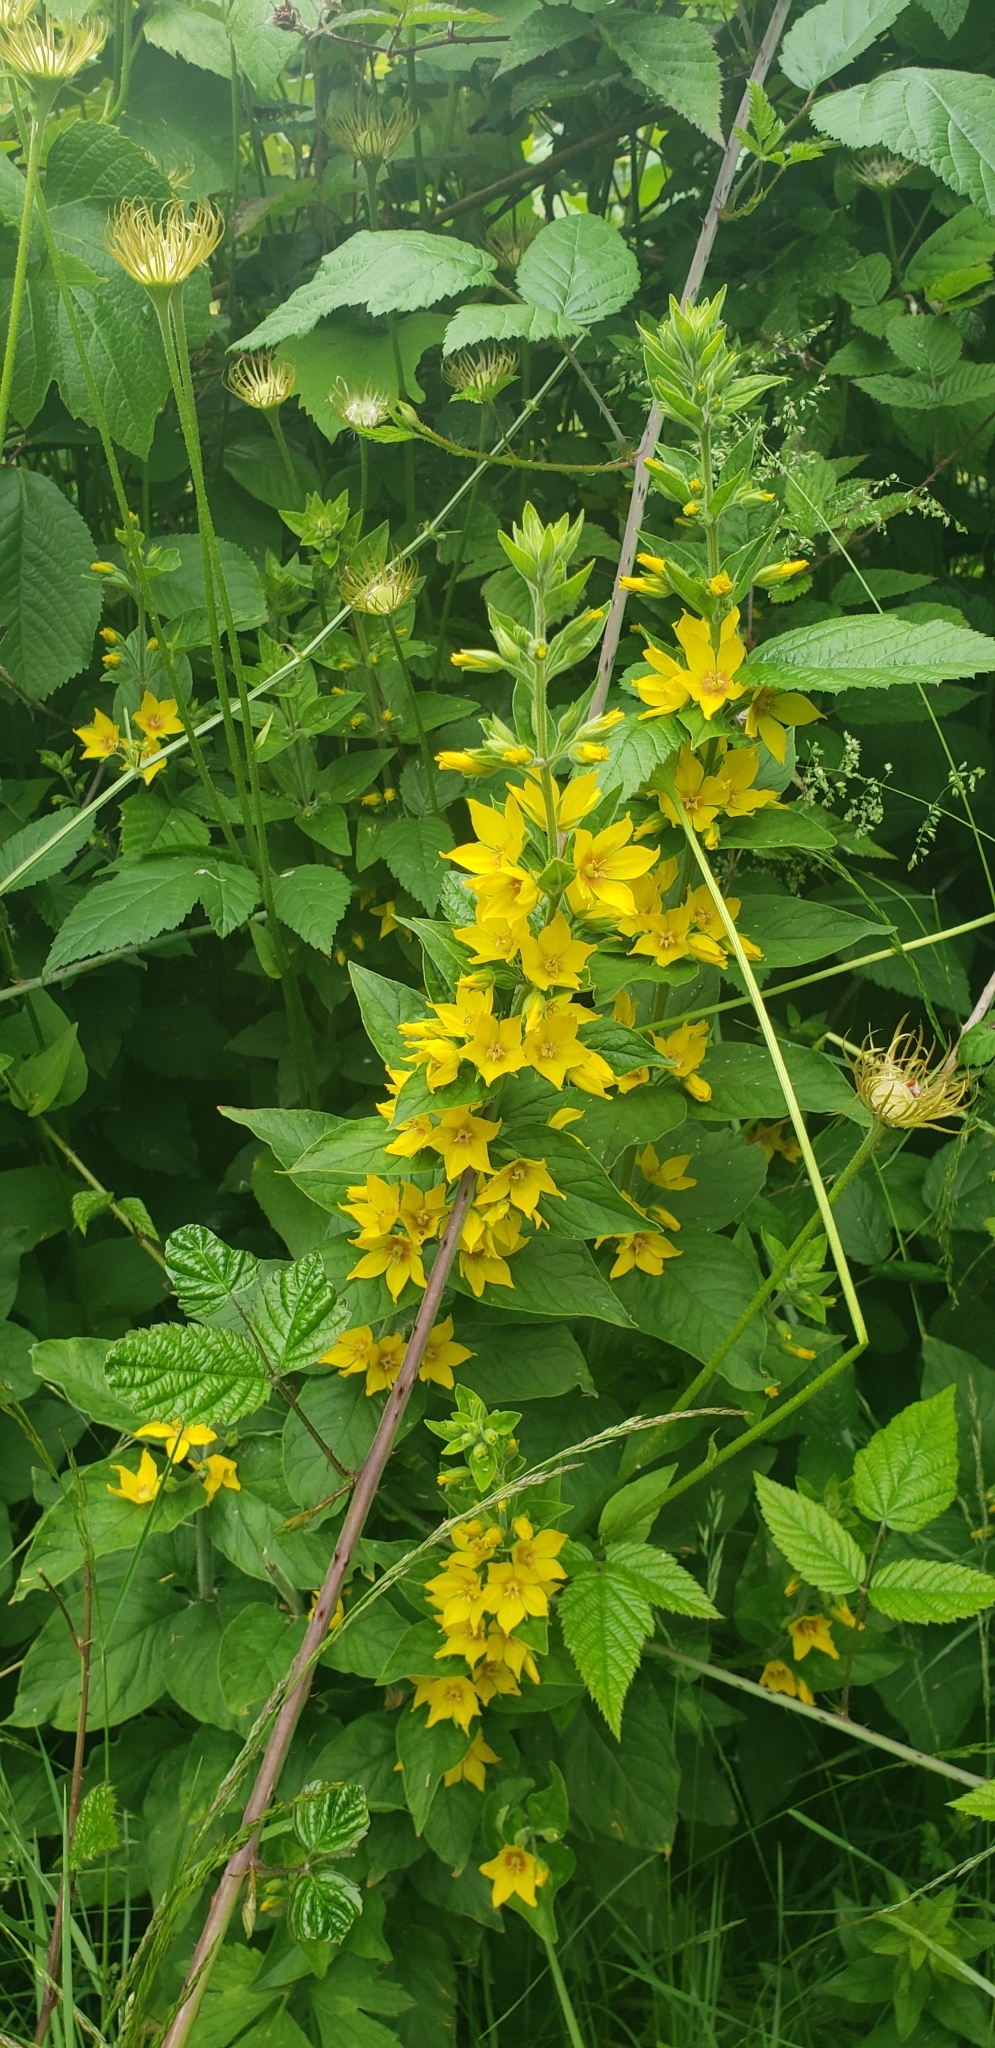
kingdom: Plantae
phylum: Tracheophyta
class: Magnoliopsida
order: Ericales
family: Primulaceae
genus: Lysimachia
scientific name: Lysimachia punctata
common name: Dotted loosestrife
